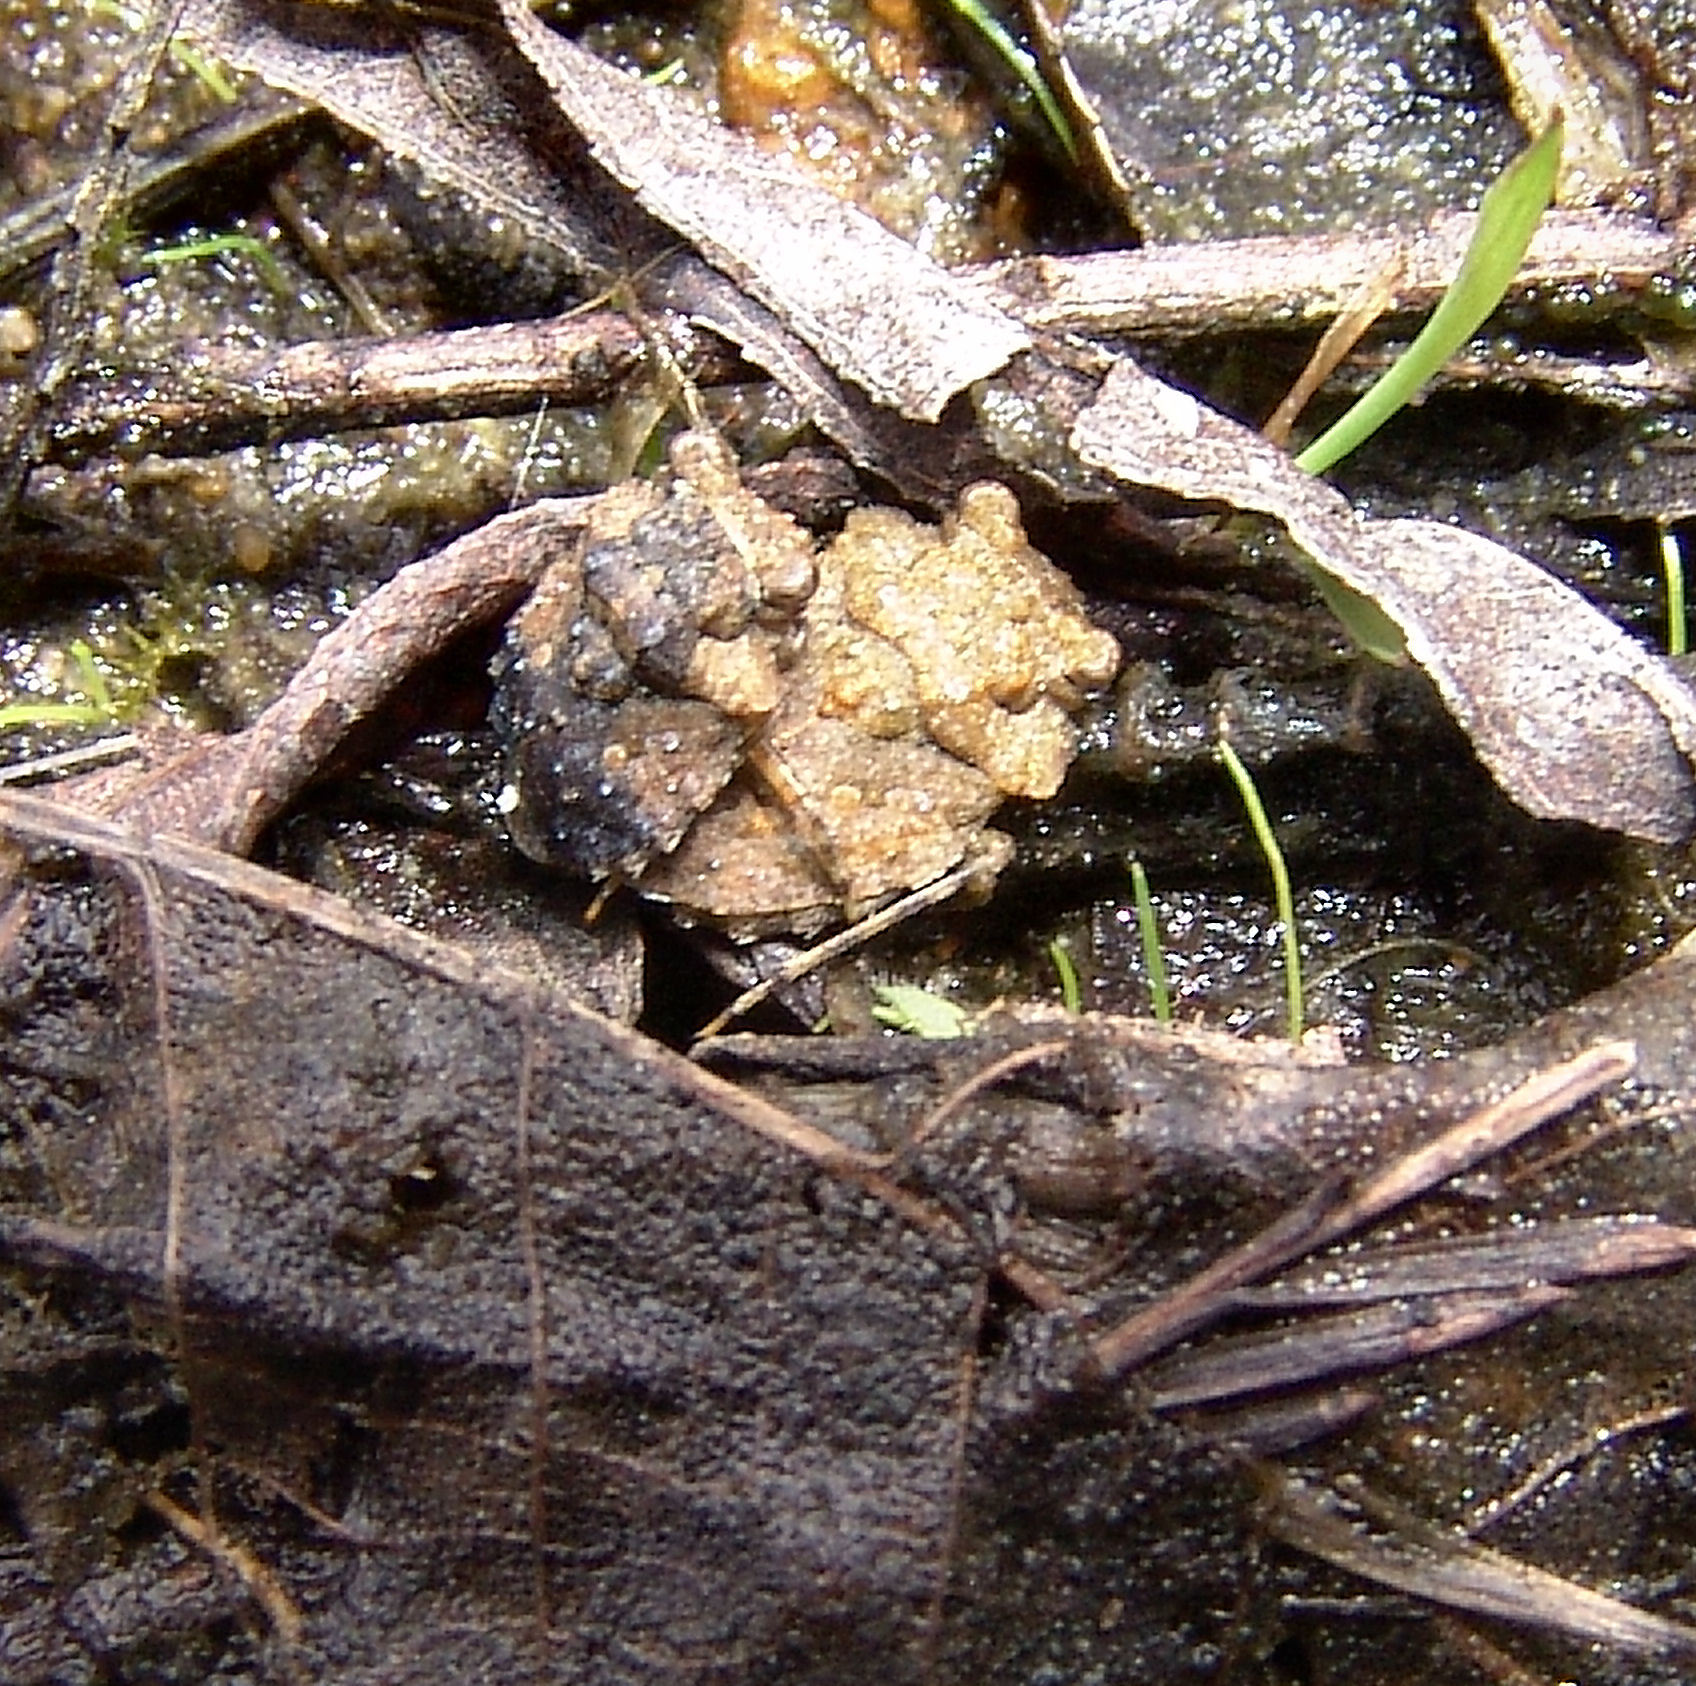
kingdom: Animalia
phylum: Arthropoda
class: Insecta
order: Hemiptera
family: Gelastocoridae
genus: Gelastocoris
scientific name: Gelastocoris oculatus
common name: Toad bug
